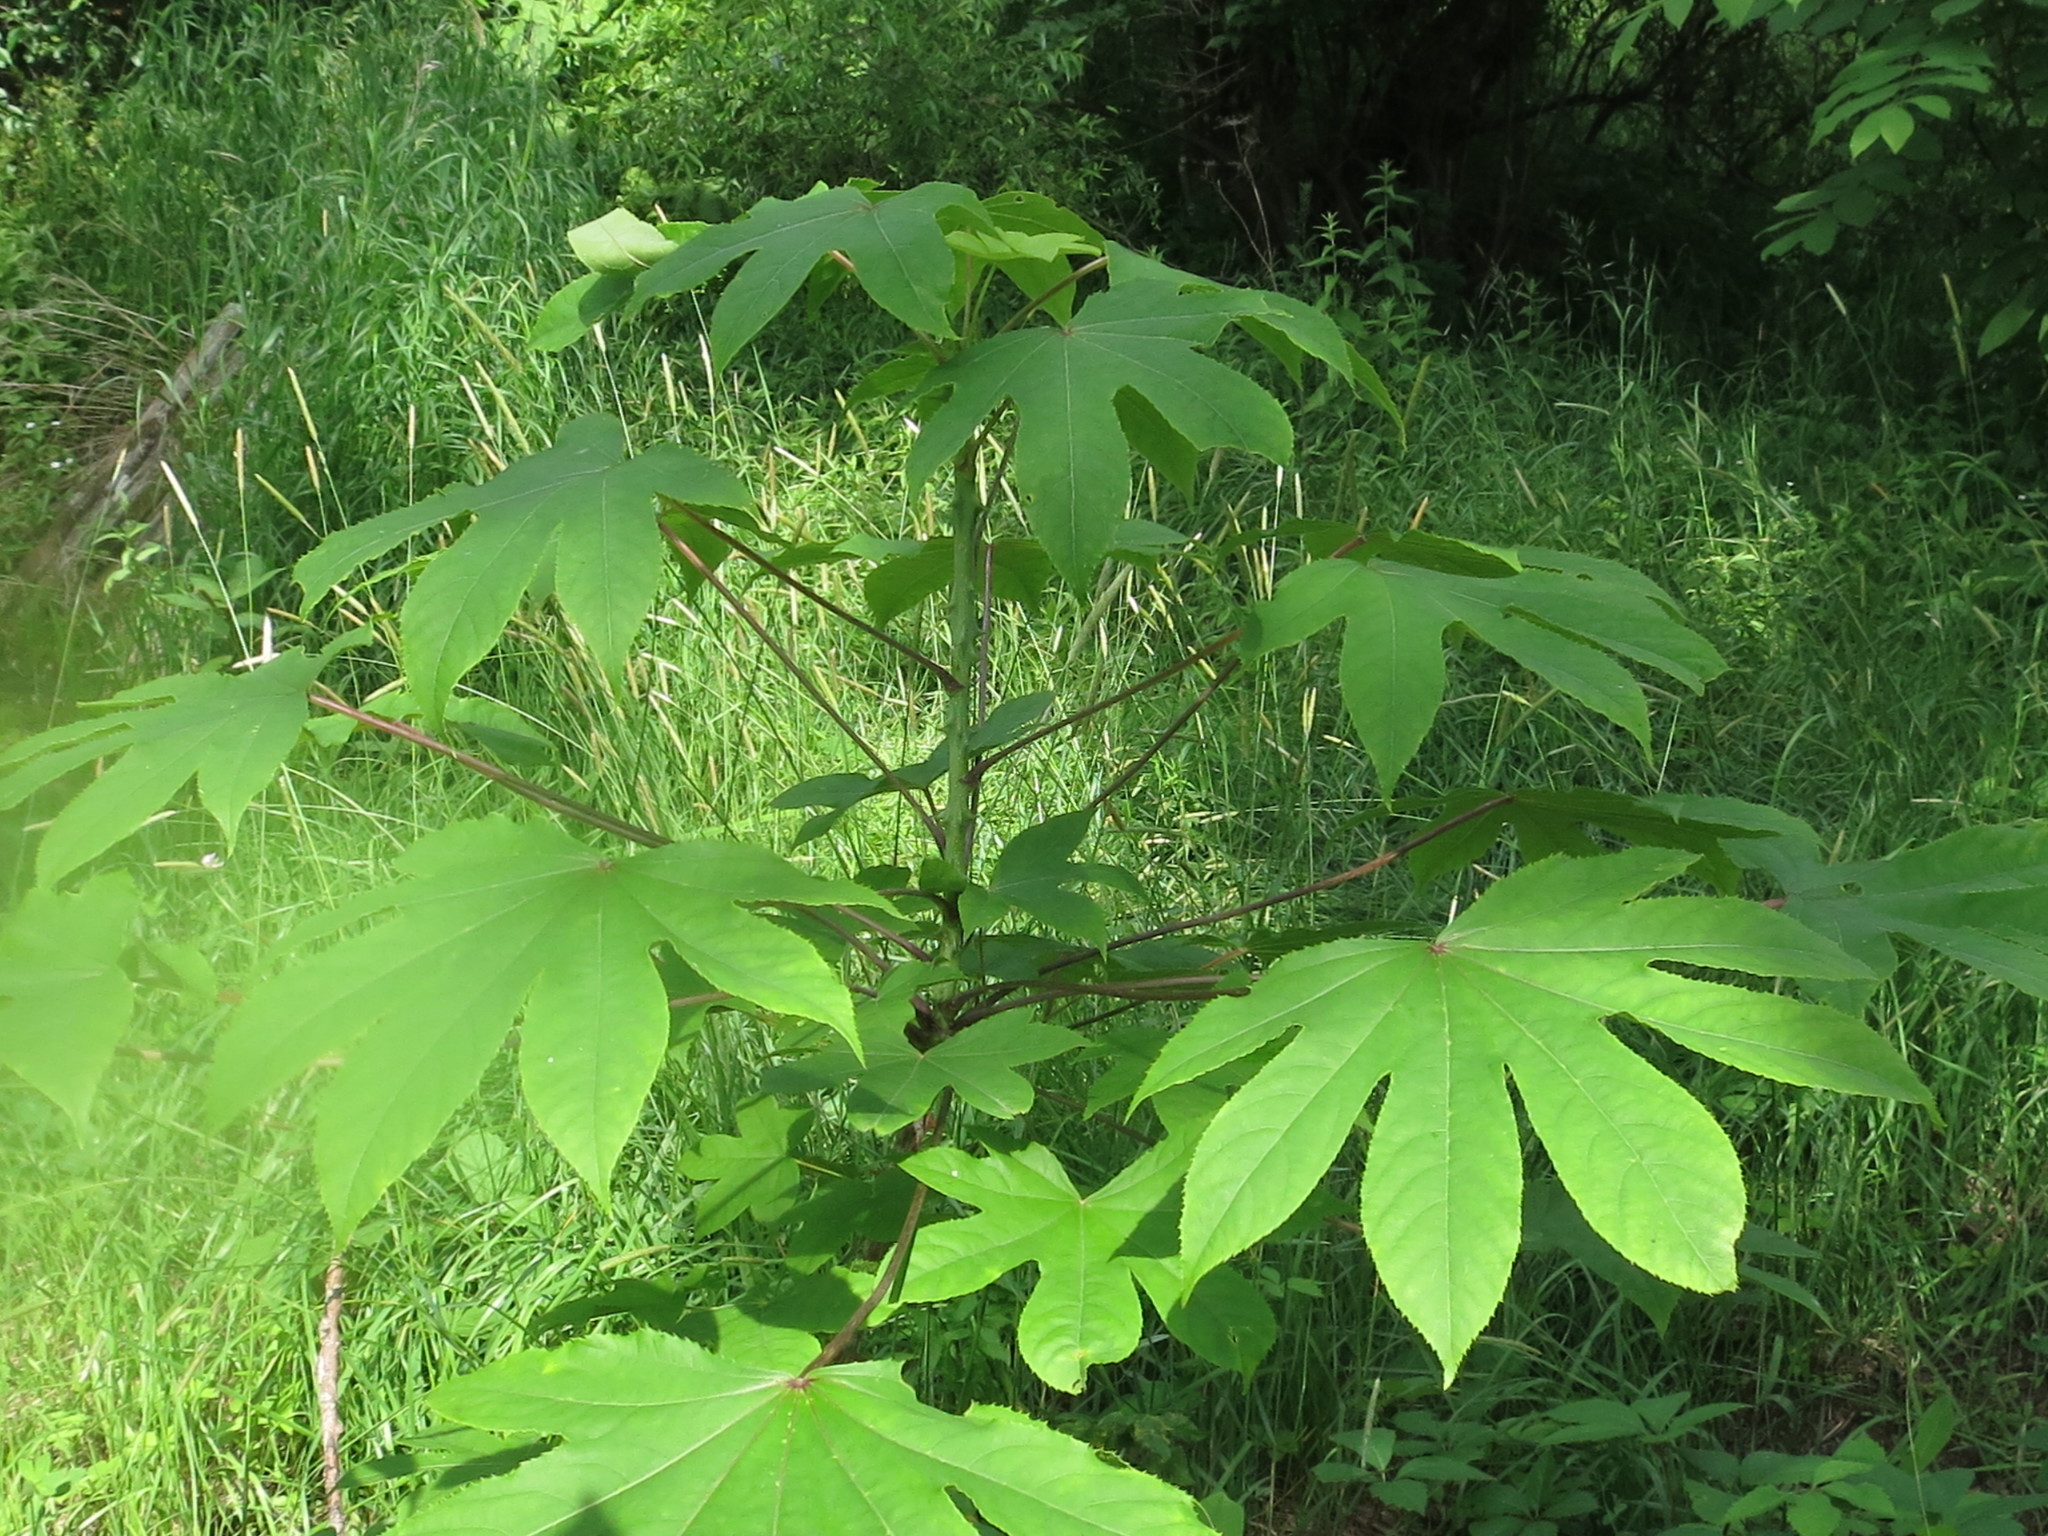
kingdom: Plantae
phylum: Tracheophyta
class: Magnoliopsida
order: Apiales
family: Araliaceae
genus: Kalopanax
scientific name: Kalopanax septemlobus
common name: Castor aralia
